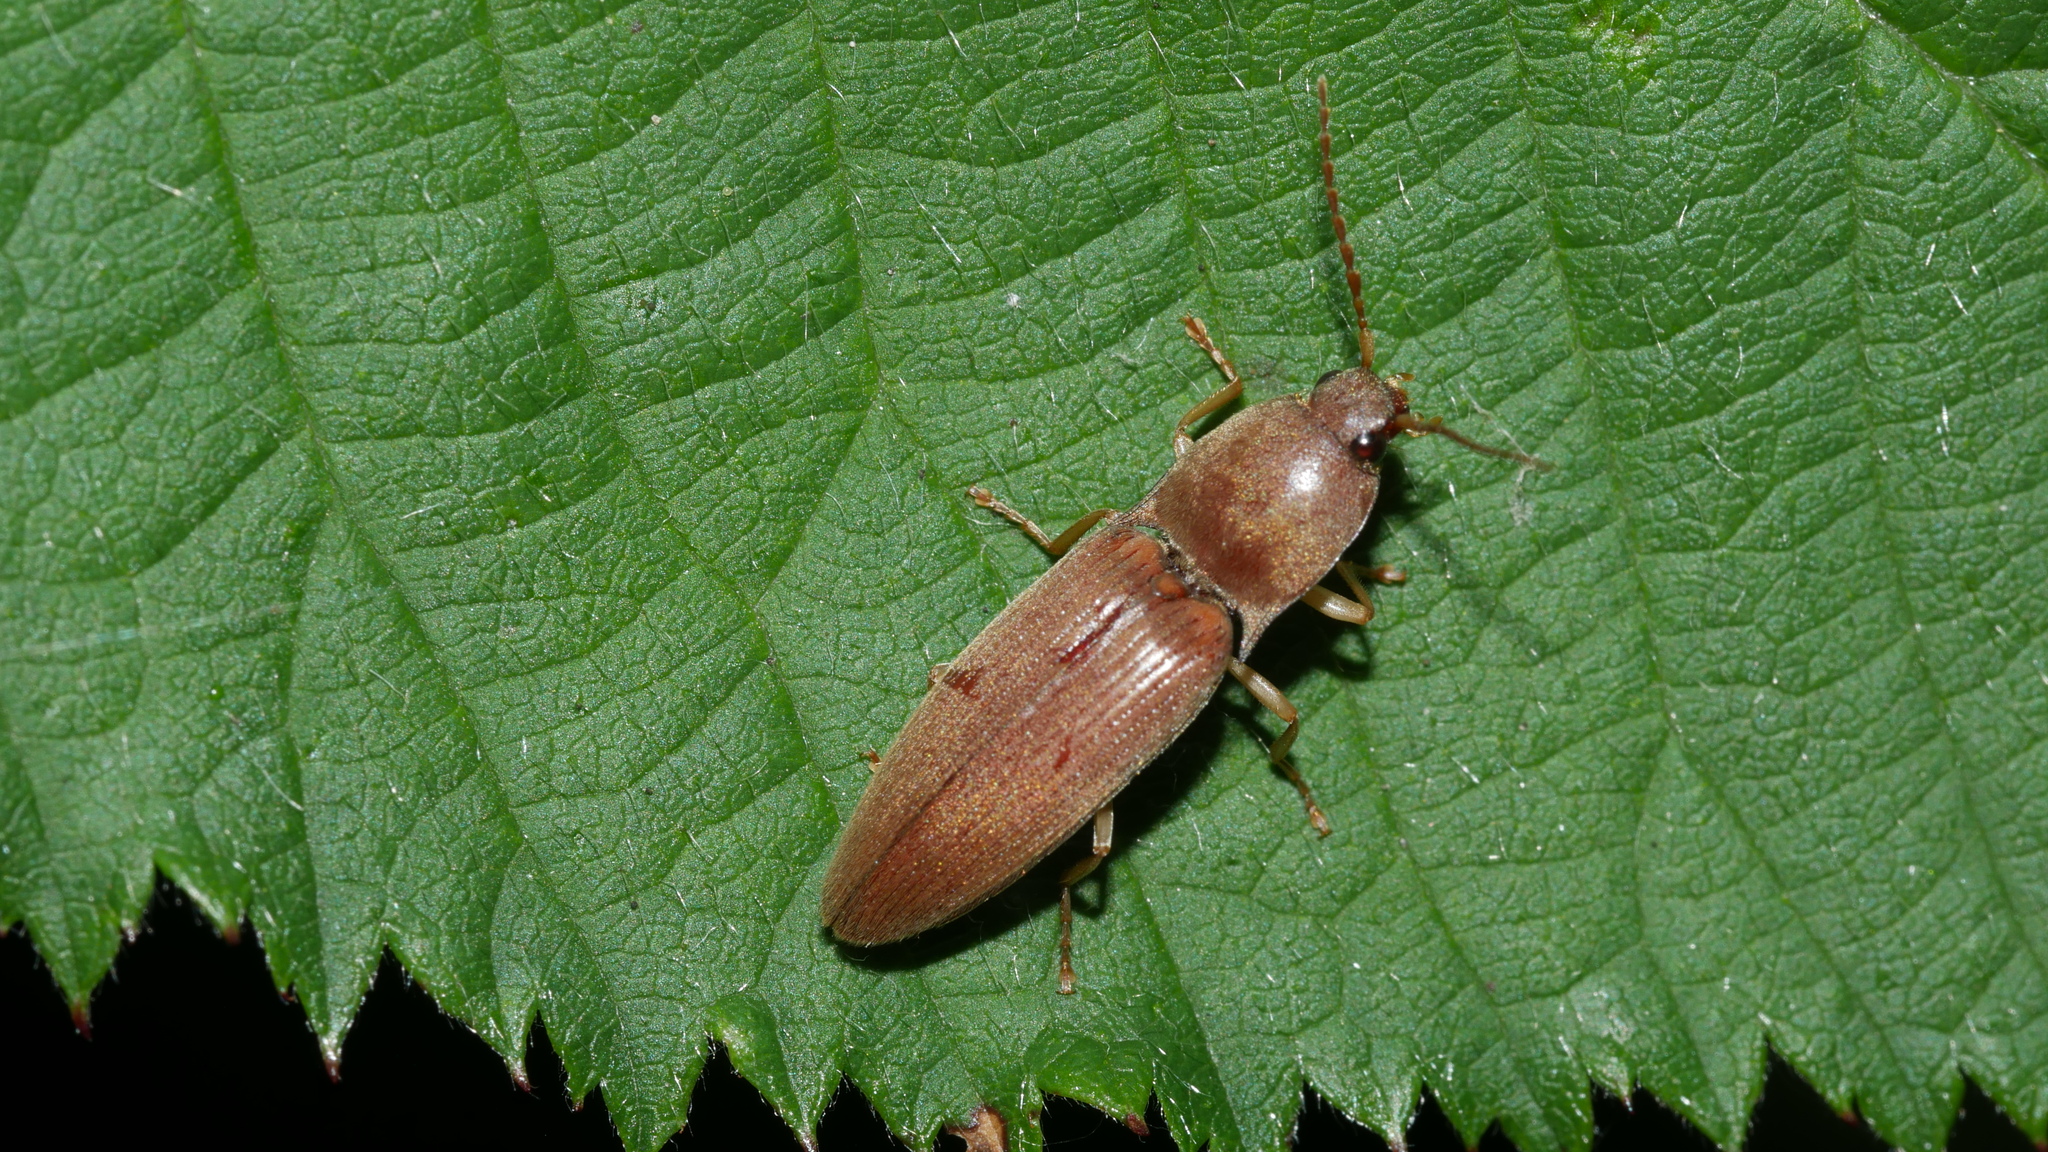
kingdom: Animalia
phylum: Arthropoda
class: Insecta
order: Coleoptera
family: Elateridae
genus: Monocrepidius
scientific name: Monocrepidius lividus
